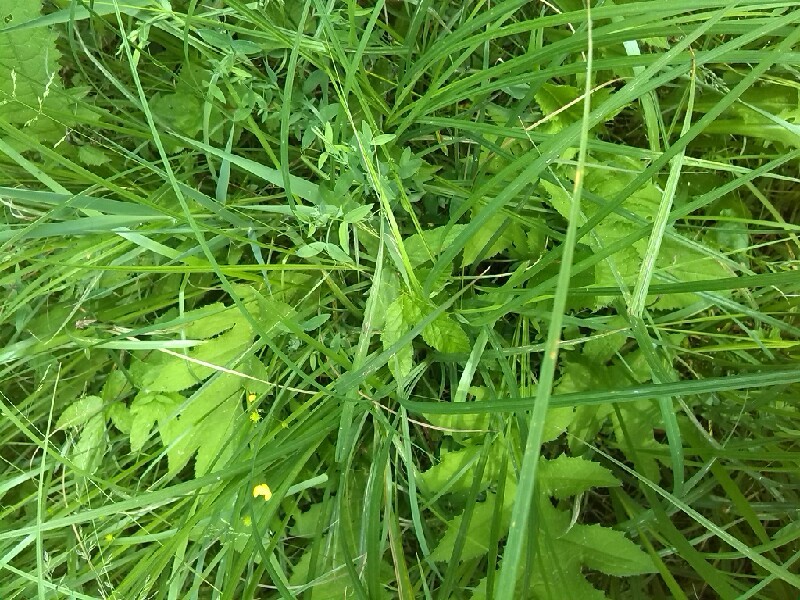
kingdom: Plantae
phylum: Tracheophyta
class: Magnoliopsida
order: Asterales
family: Asteraceae
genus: Cirsium
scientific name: Cirsium oleraceum
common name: Cabbage thistle
